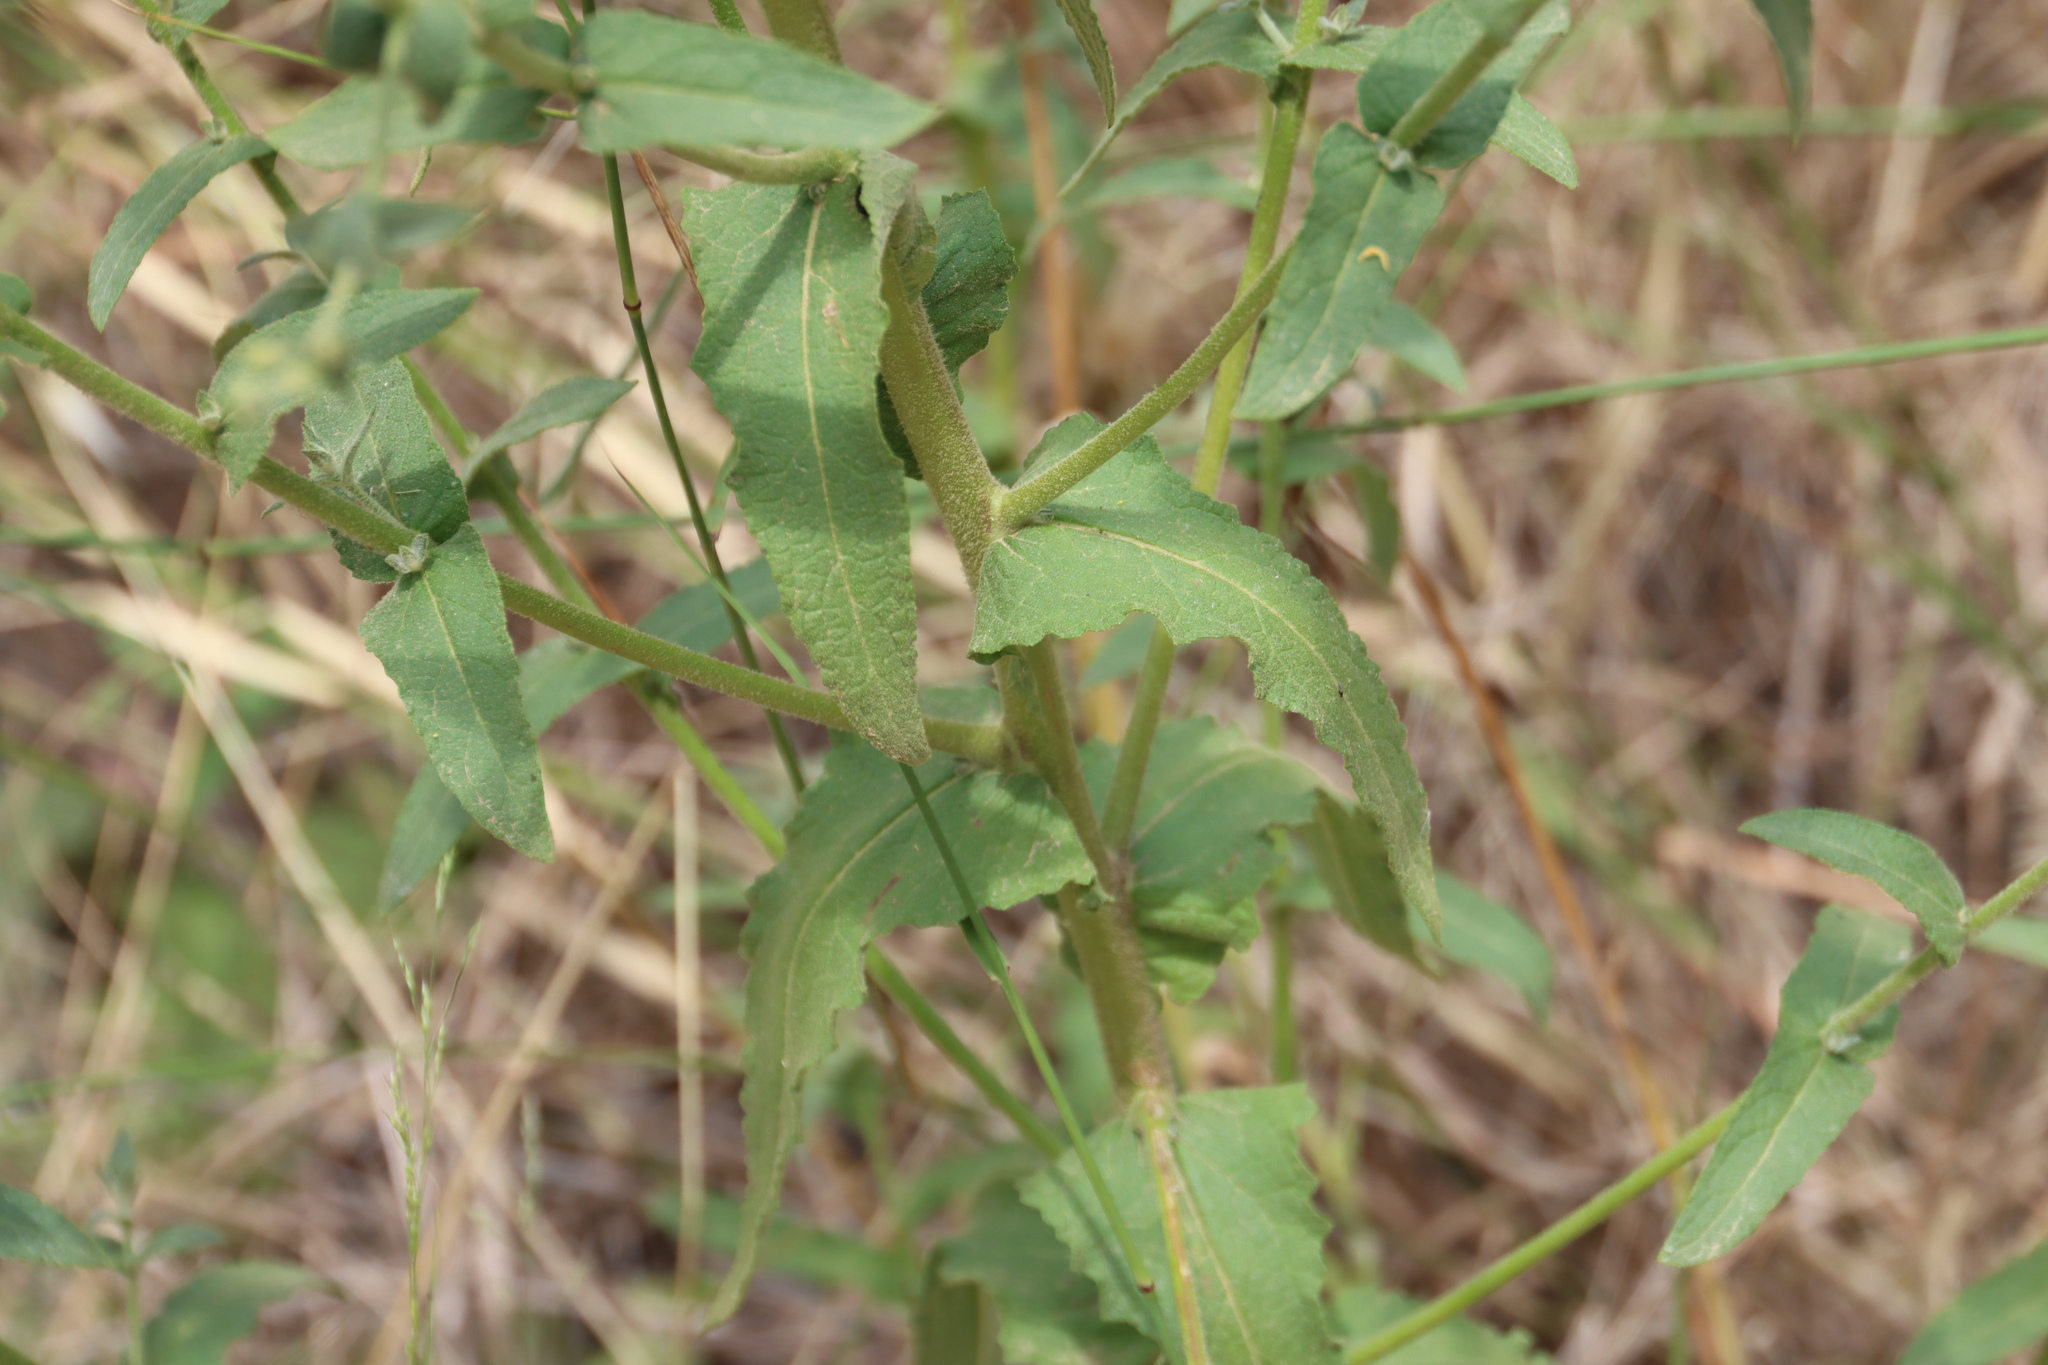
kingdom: Plantae
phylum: Tracheophyta
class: Magnoliopsida
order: Lamiales
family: Scrophulariaceae
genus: Verbascum
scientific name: Verbascum sinuatum
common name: Wavyleaf mullein
